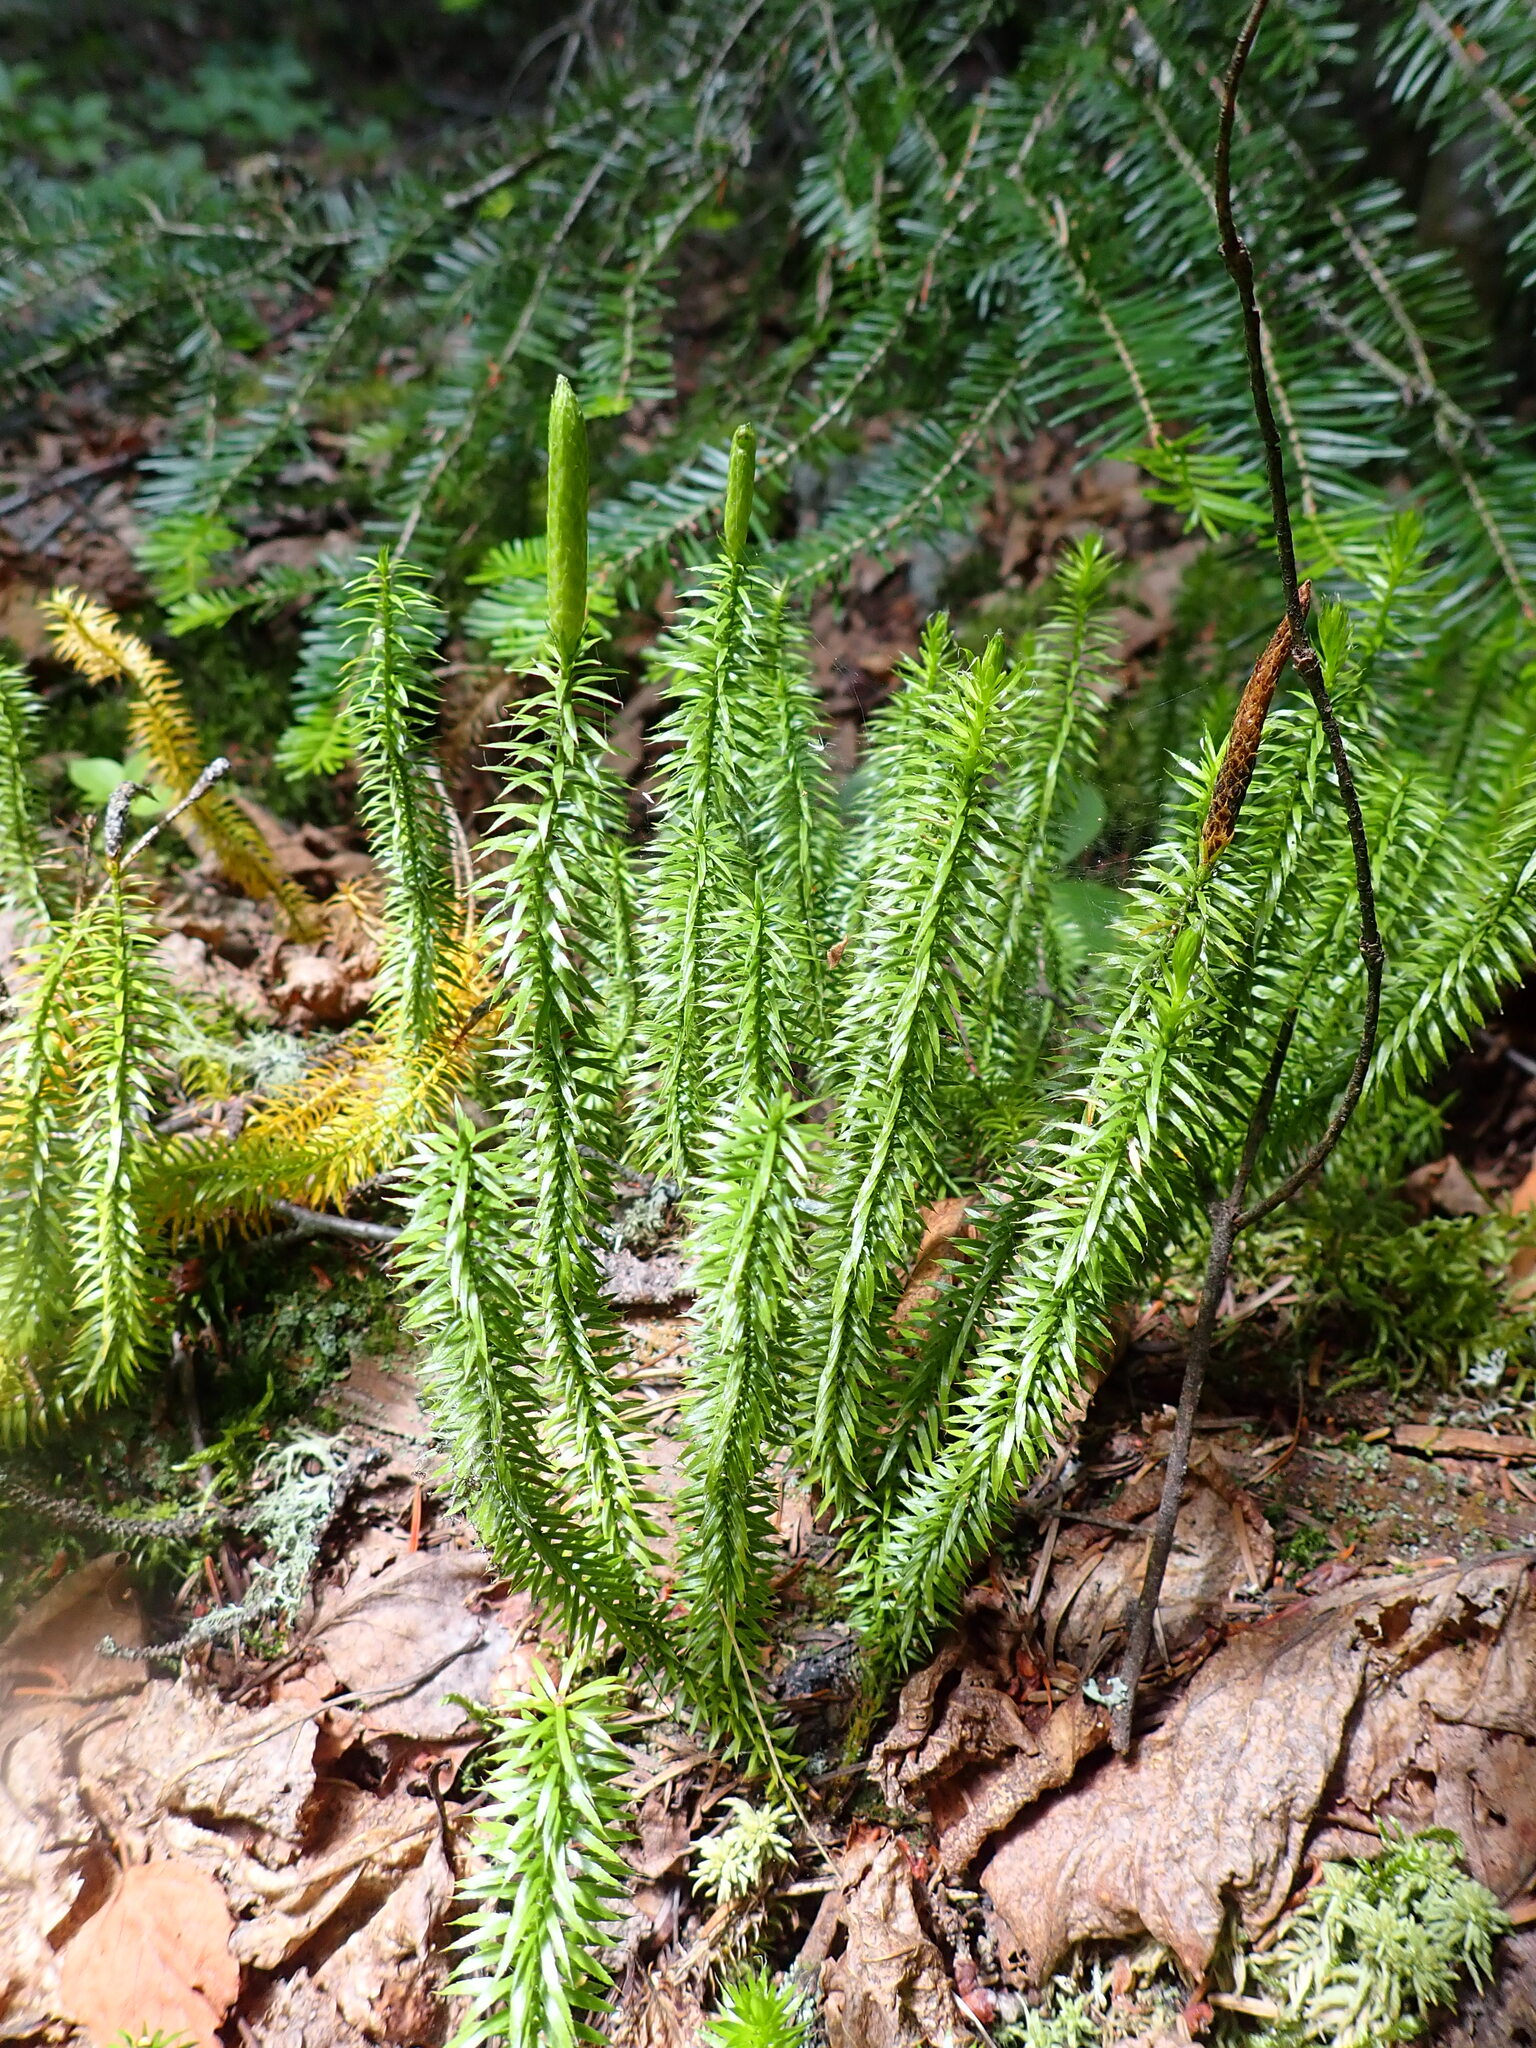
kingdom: Plantae
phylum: Tracheophyta
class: Lycopodiopsida
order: Lycopodiales
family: Lycopodiaceae
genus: Spinulum
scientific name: Spinulum annotinum
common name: Interrupted club-moss
